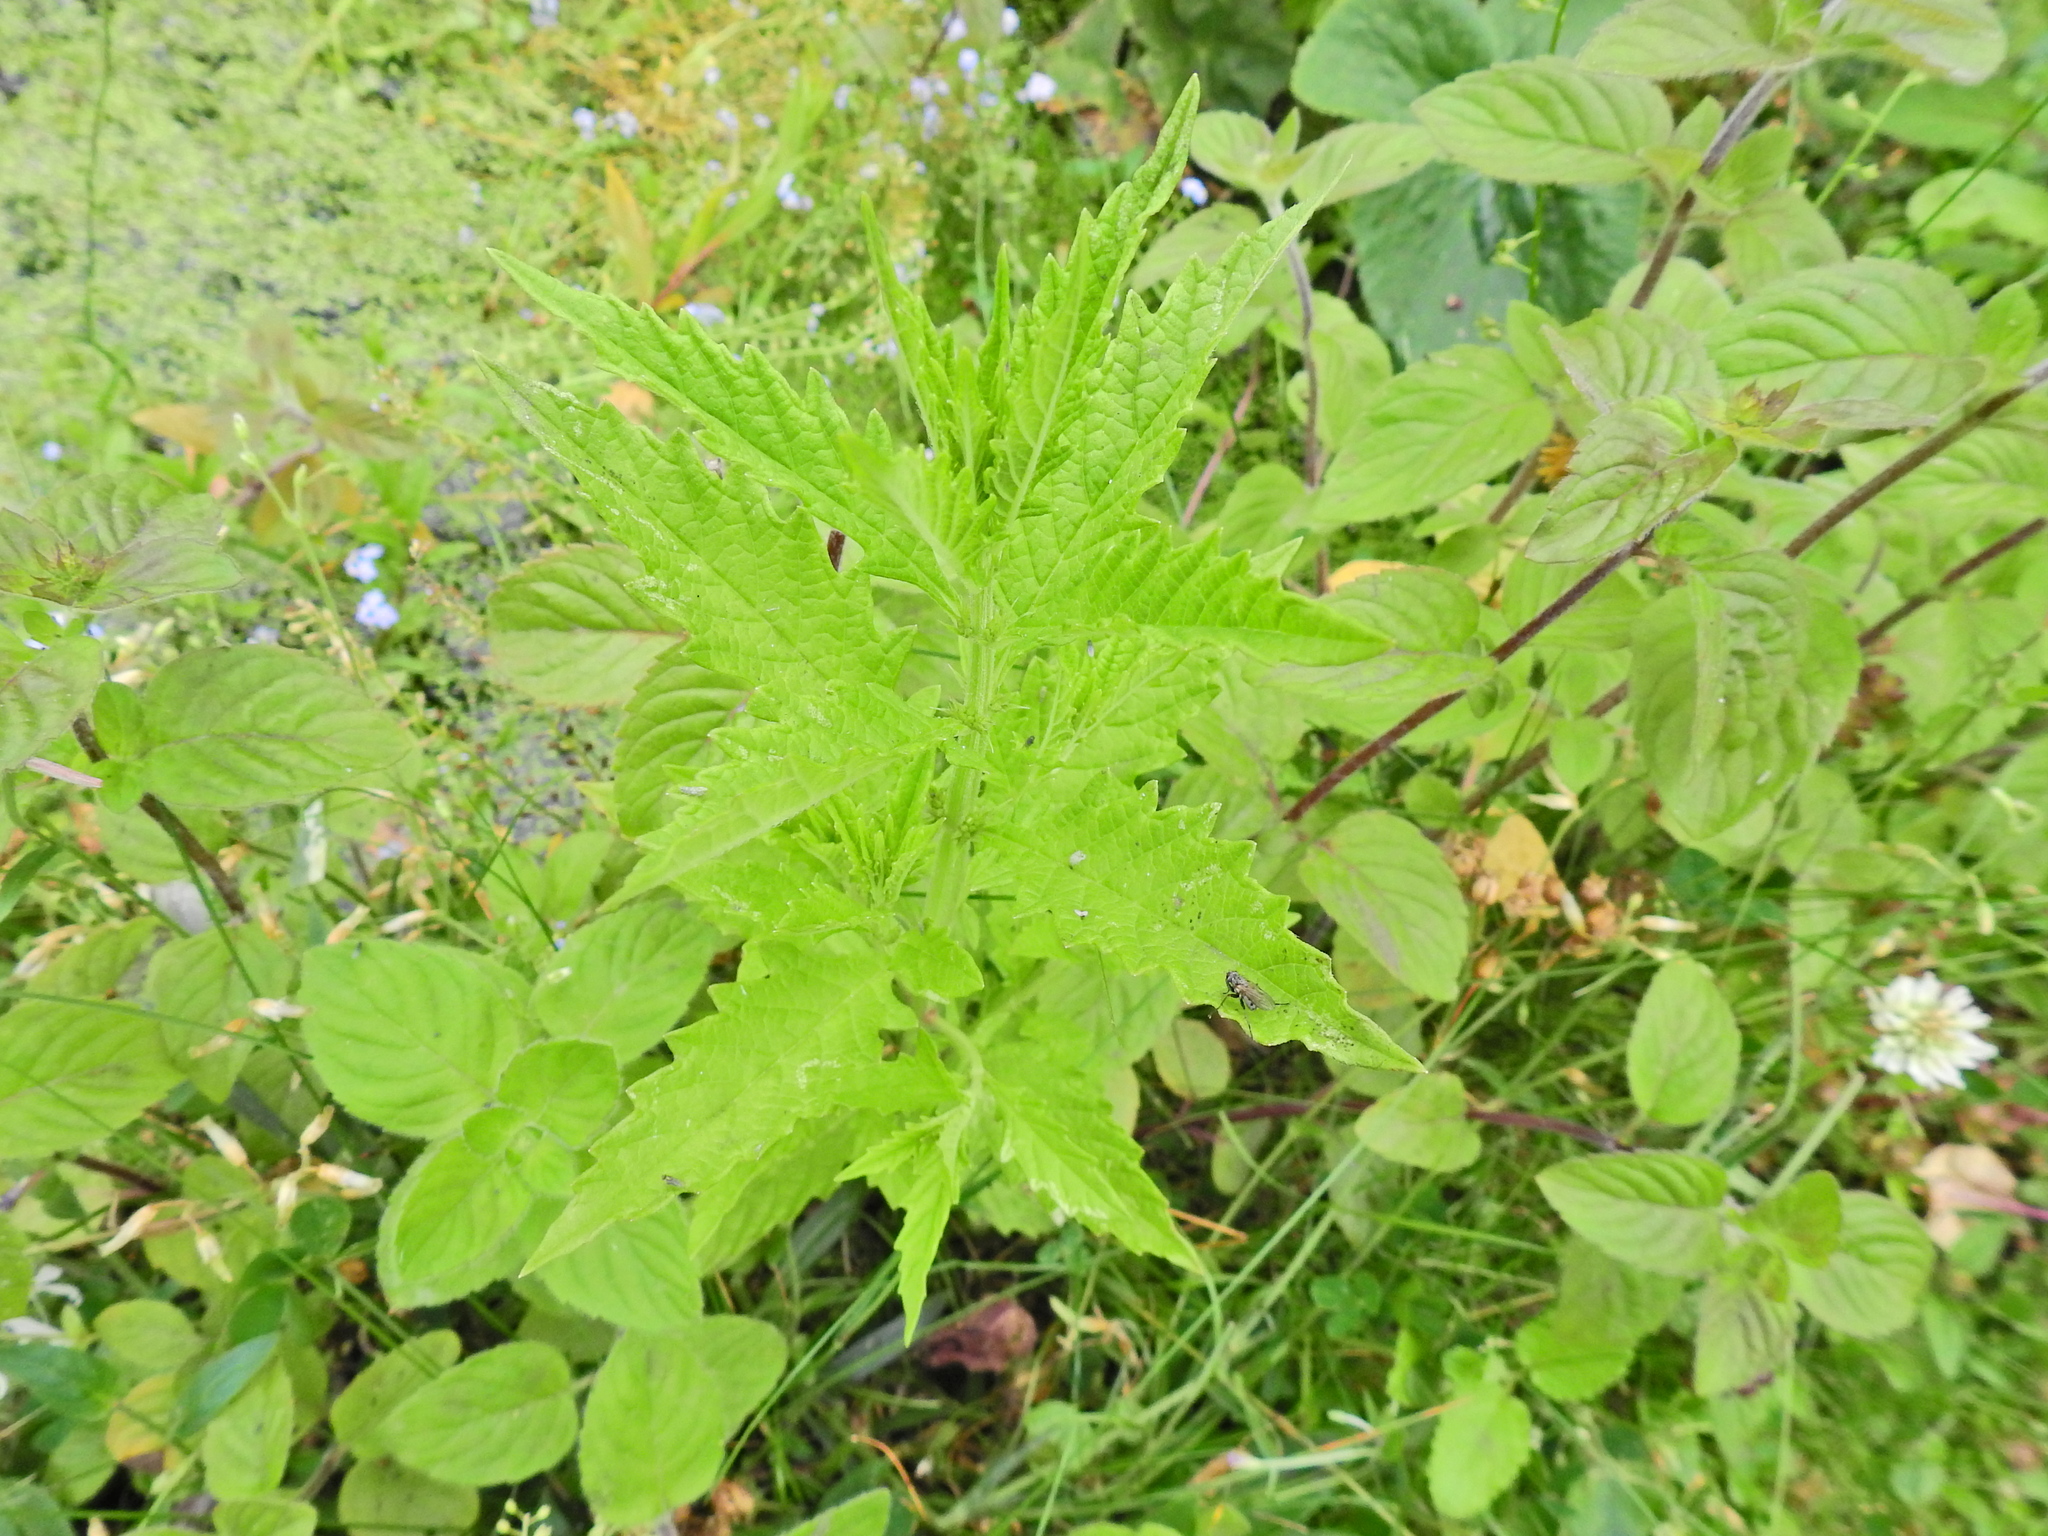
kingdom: Plantae
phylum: Tracheophyta
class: Magnoliopsida
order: Lamiales
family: Lamiaceae
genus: Lycopus
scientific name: Lycopus europaeus
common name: European bugleweed
